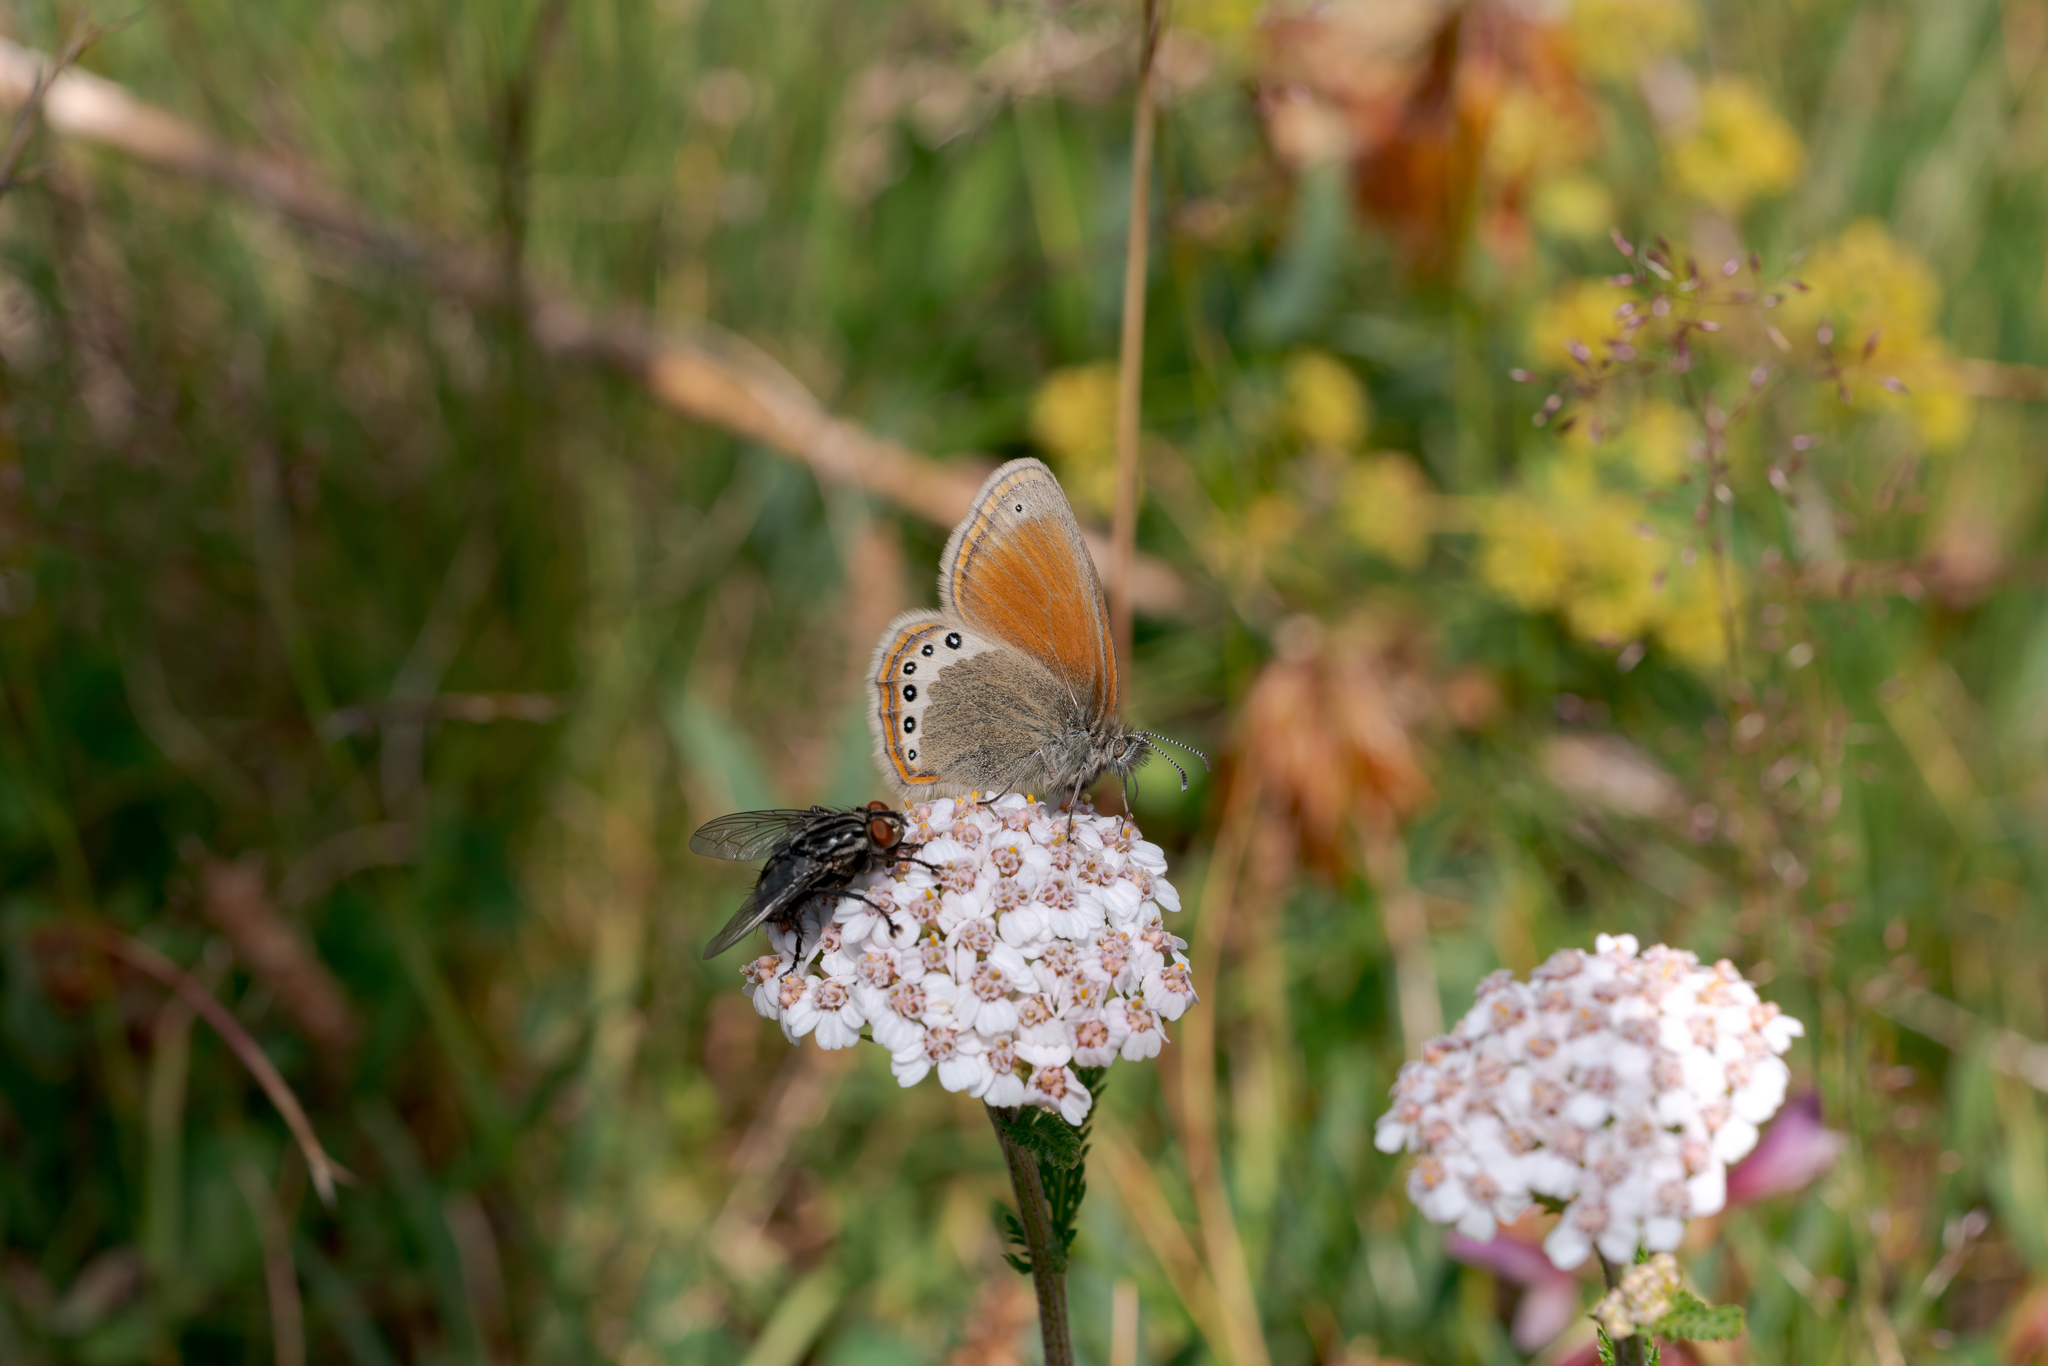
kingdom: Animalia
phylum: Arthropoda
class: Insecta
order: Lepidoptera
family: Nymphalidae
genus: Coenonympha
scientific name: Coenonympha
